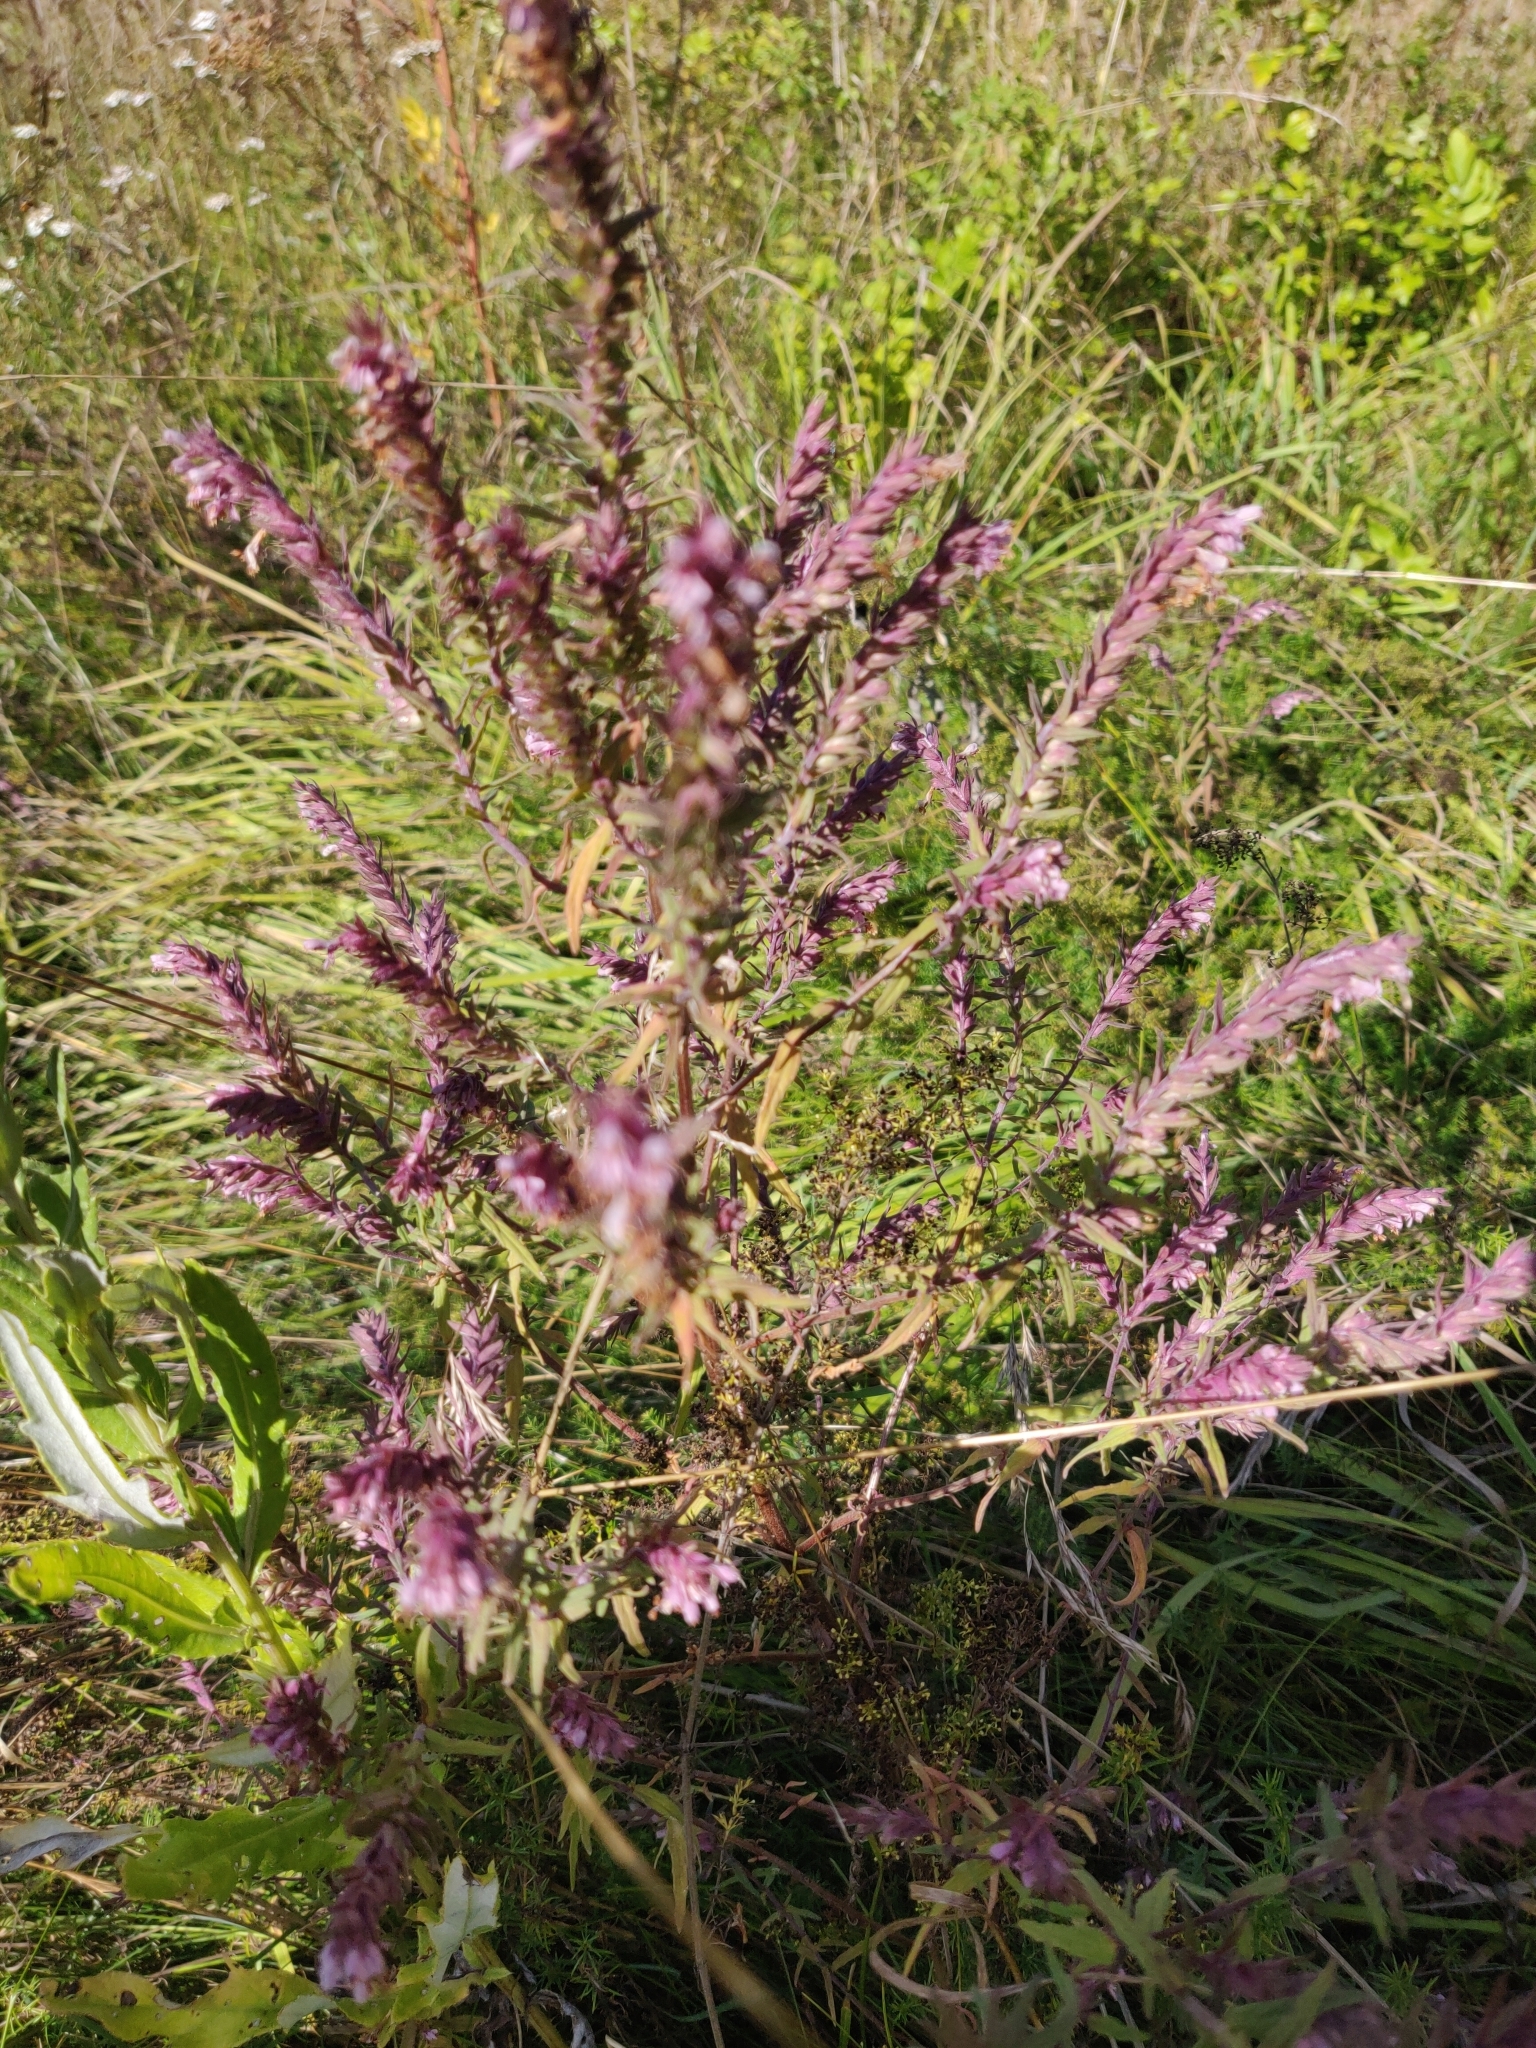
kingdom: Plantae
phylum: Tracheophyta
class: Magnoliopsida
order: Lamiales
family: Orobanchaceae
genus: Odontites
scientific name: Odontites vulgaris
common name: Broomrape
